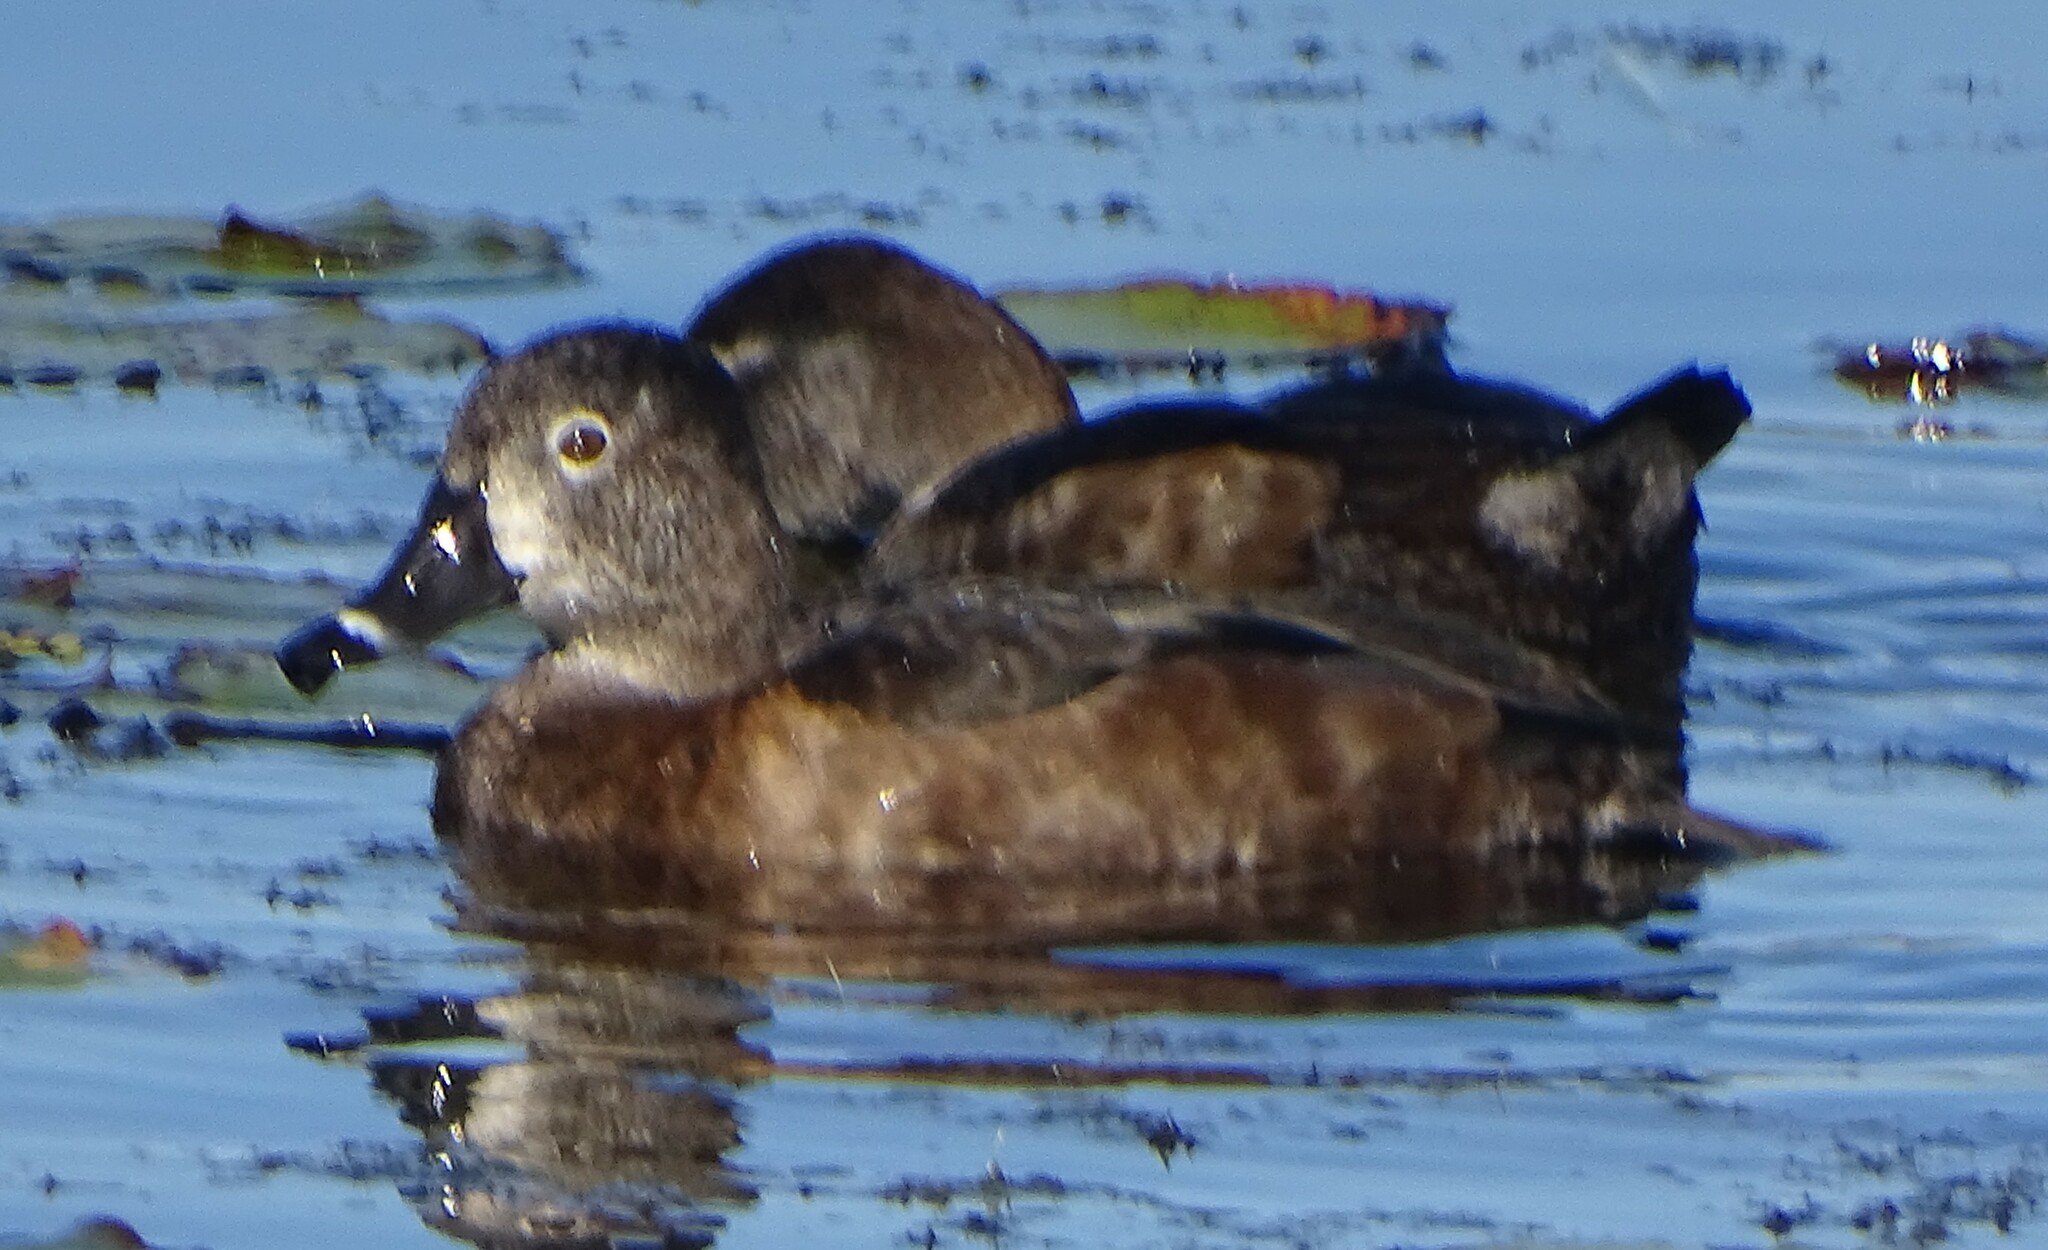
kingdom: Animalia
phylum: Chordata
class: Aves
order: Anseriformes
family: Anatidae
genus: Aythya
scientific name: Aythya collaris
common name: Ring-necked duck
